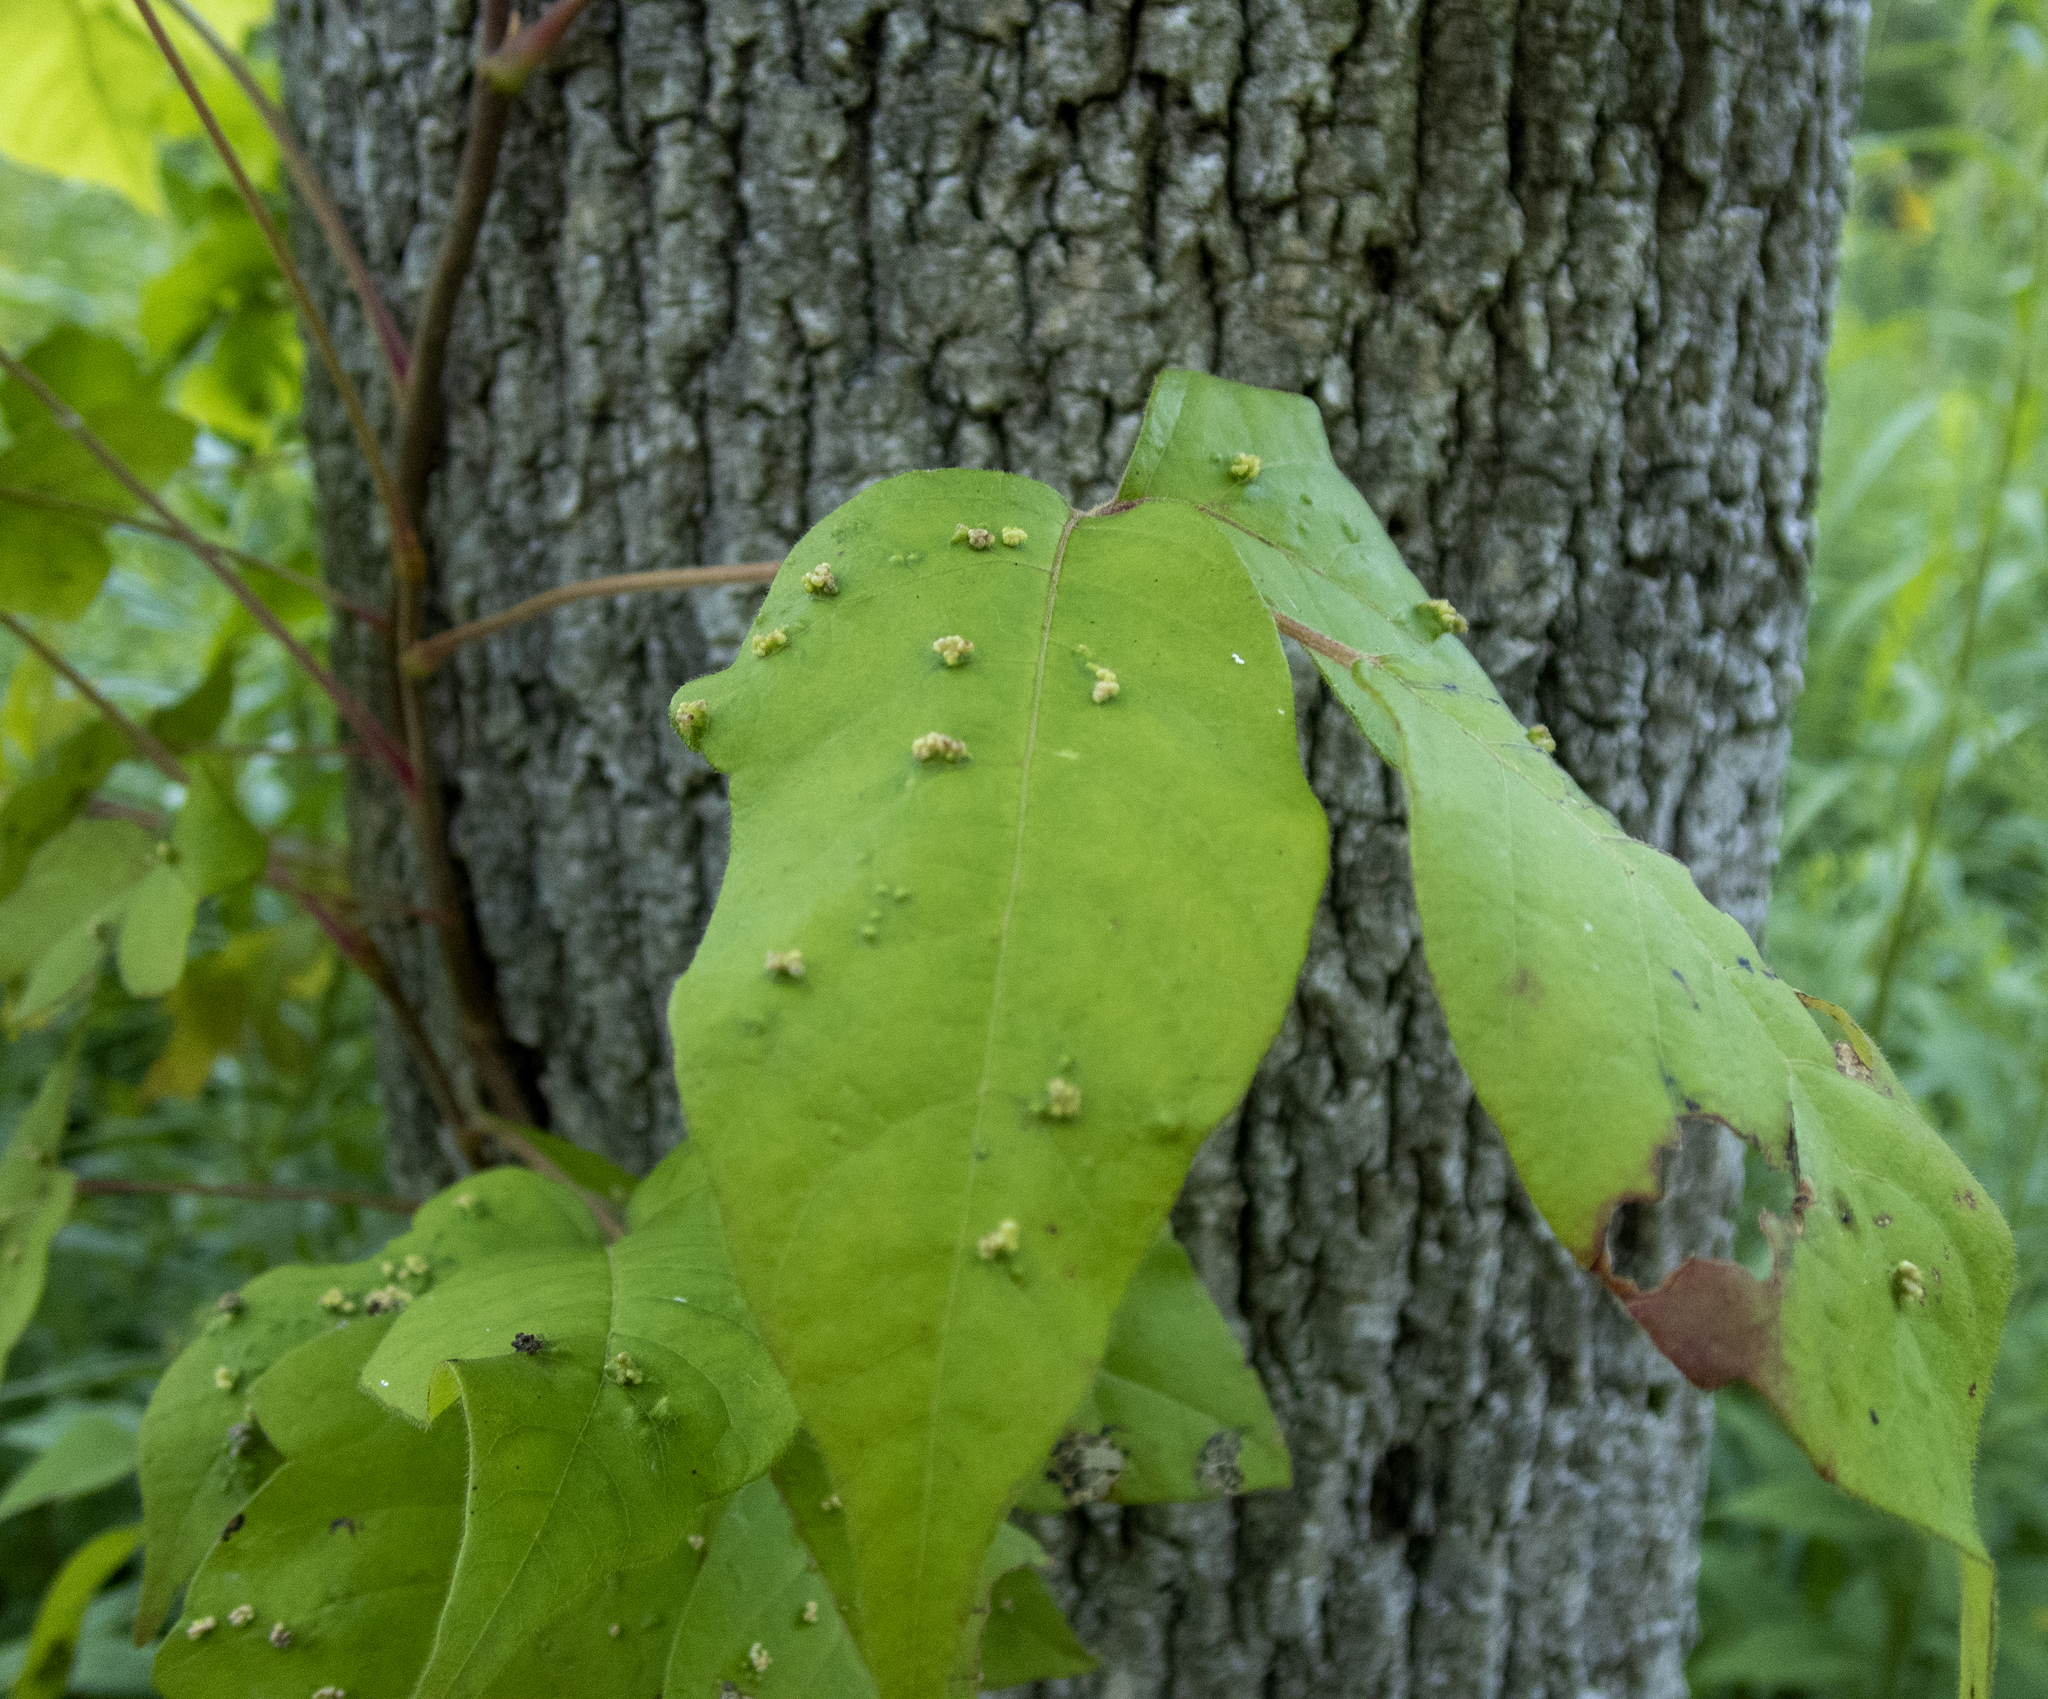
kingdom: Animalia
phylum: Arthropoda
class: Arachnida
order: Trombidiformes
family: Eriophyidae
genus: Aculops
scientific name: Aculops
